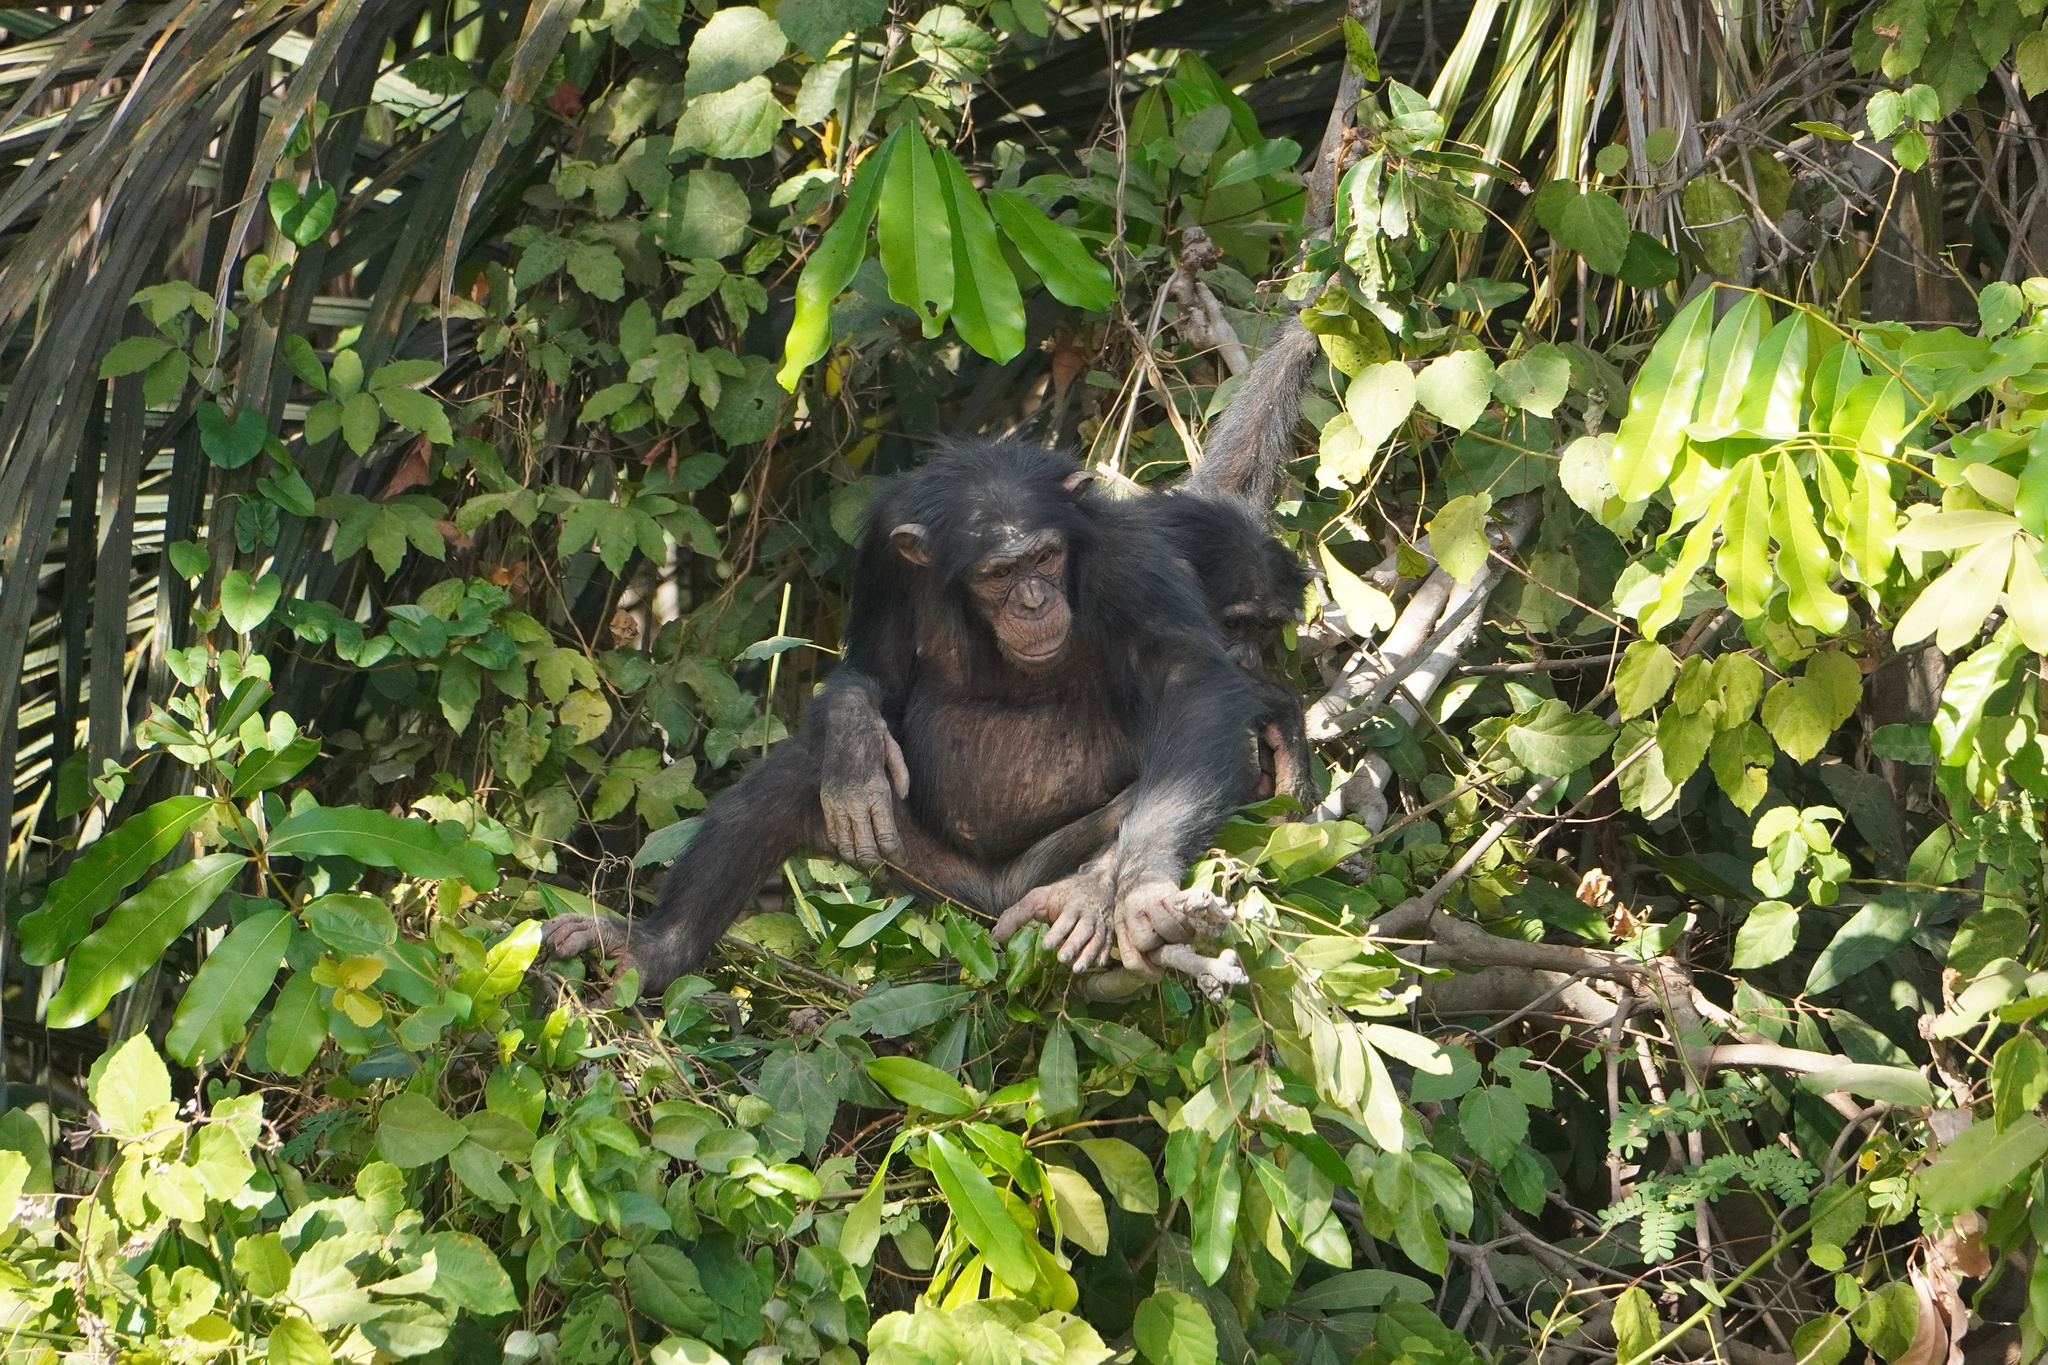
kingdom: Animalia
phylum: Chordata
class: Mammalia
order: Primates
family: Hominidae
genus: Pan
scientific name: Pan troglodytes
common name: Chimpanzee
